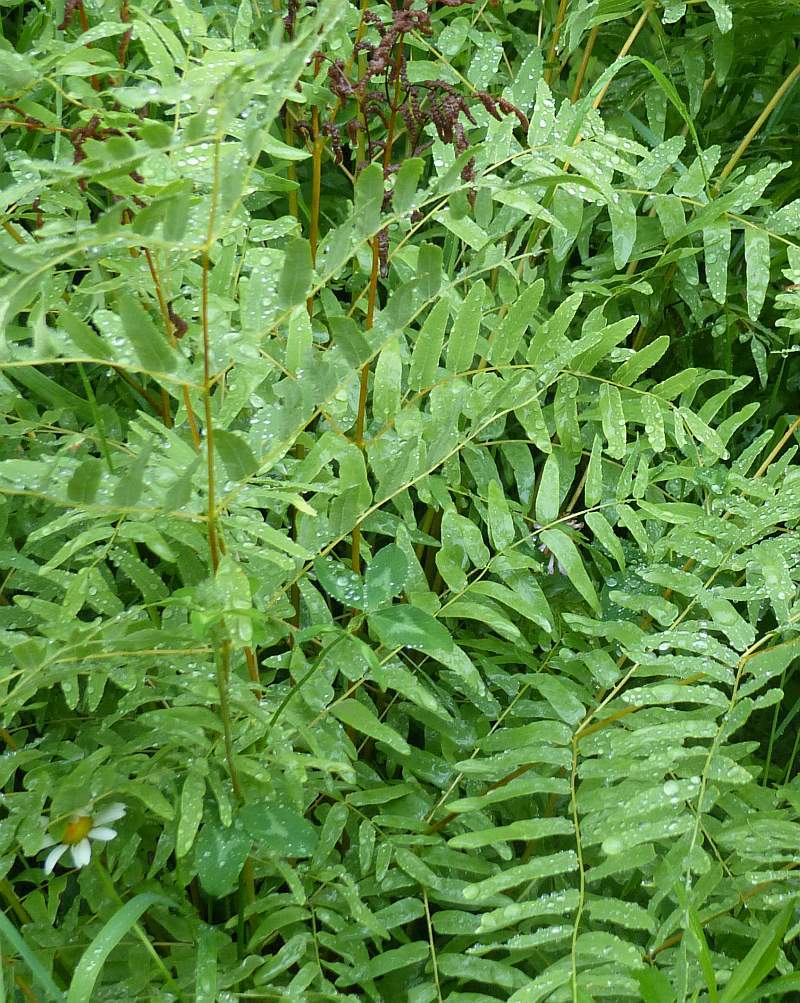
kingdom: Plantae
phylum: Tracheophyta
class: Polypodiopsida
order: Osmundales
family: Osmundaceae
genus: Osmunda
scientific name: Osmunda spectabilis
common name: American royal fern
